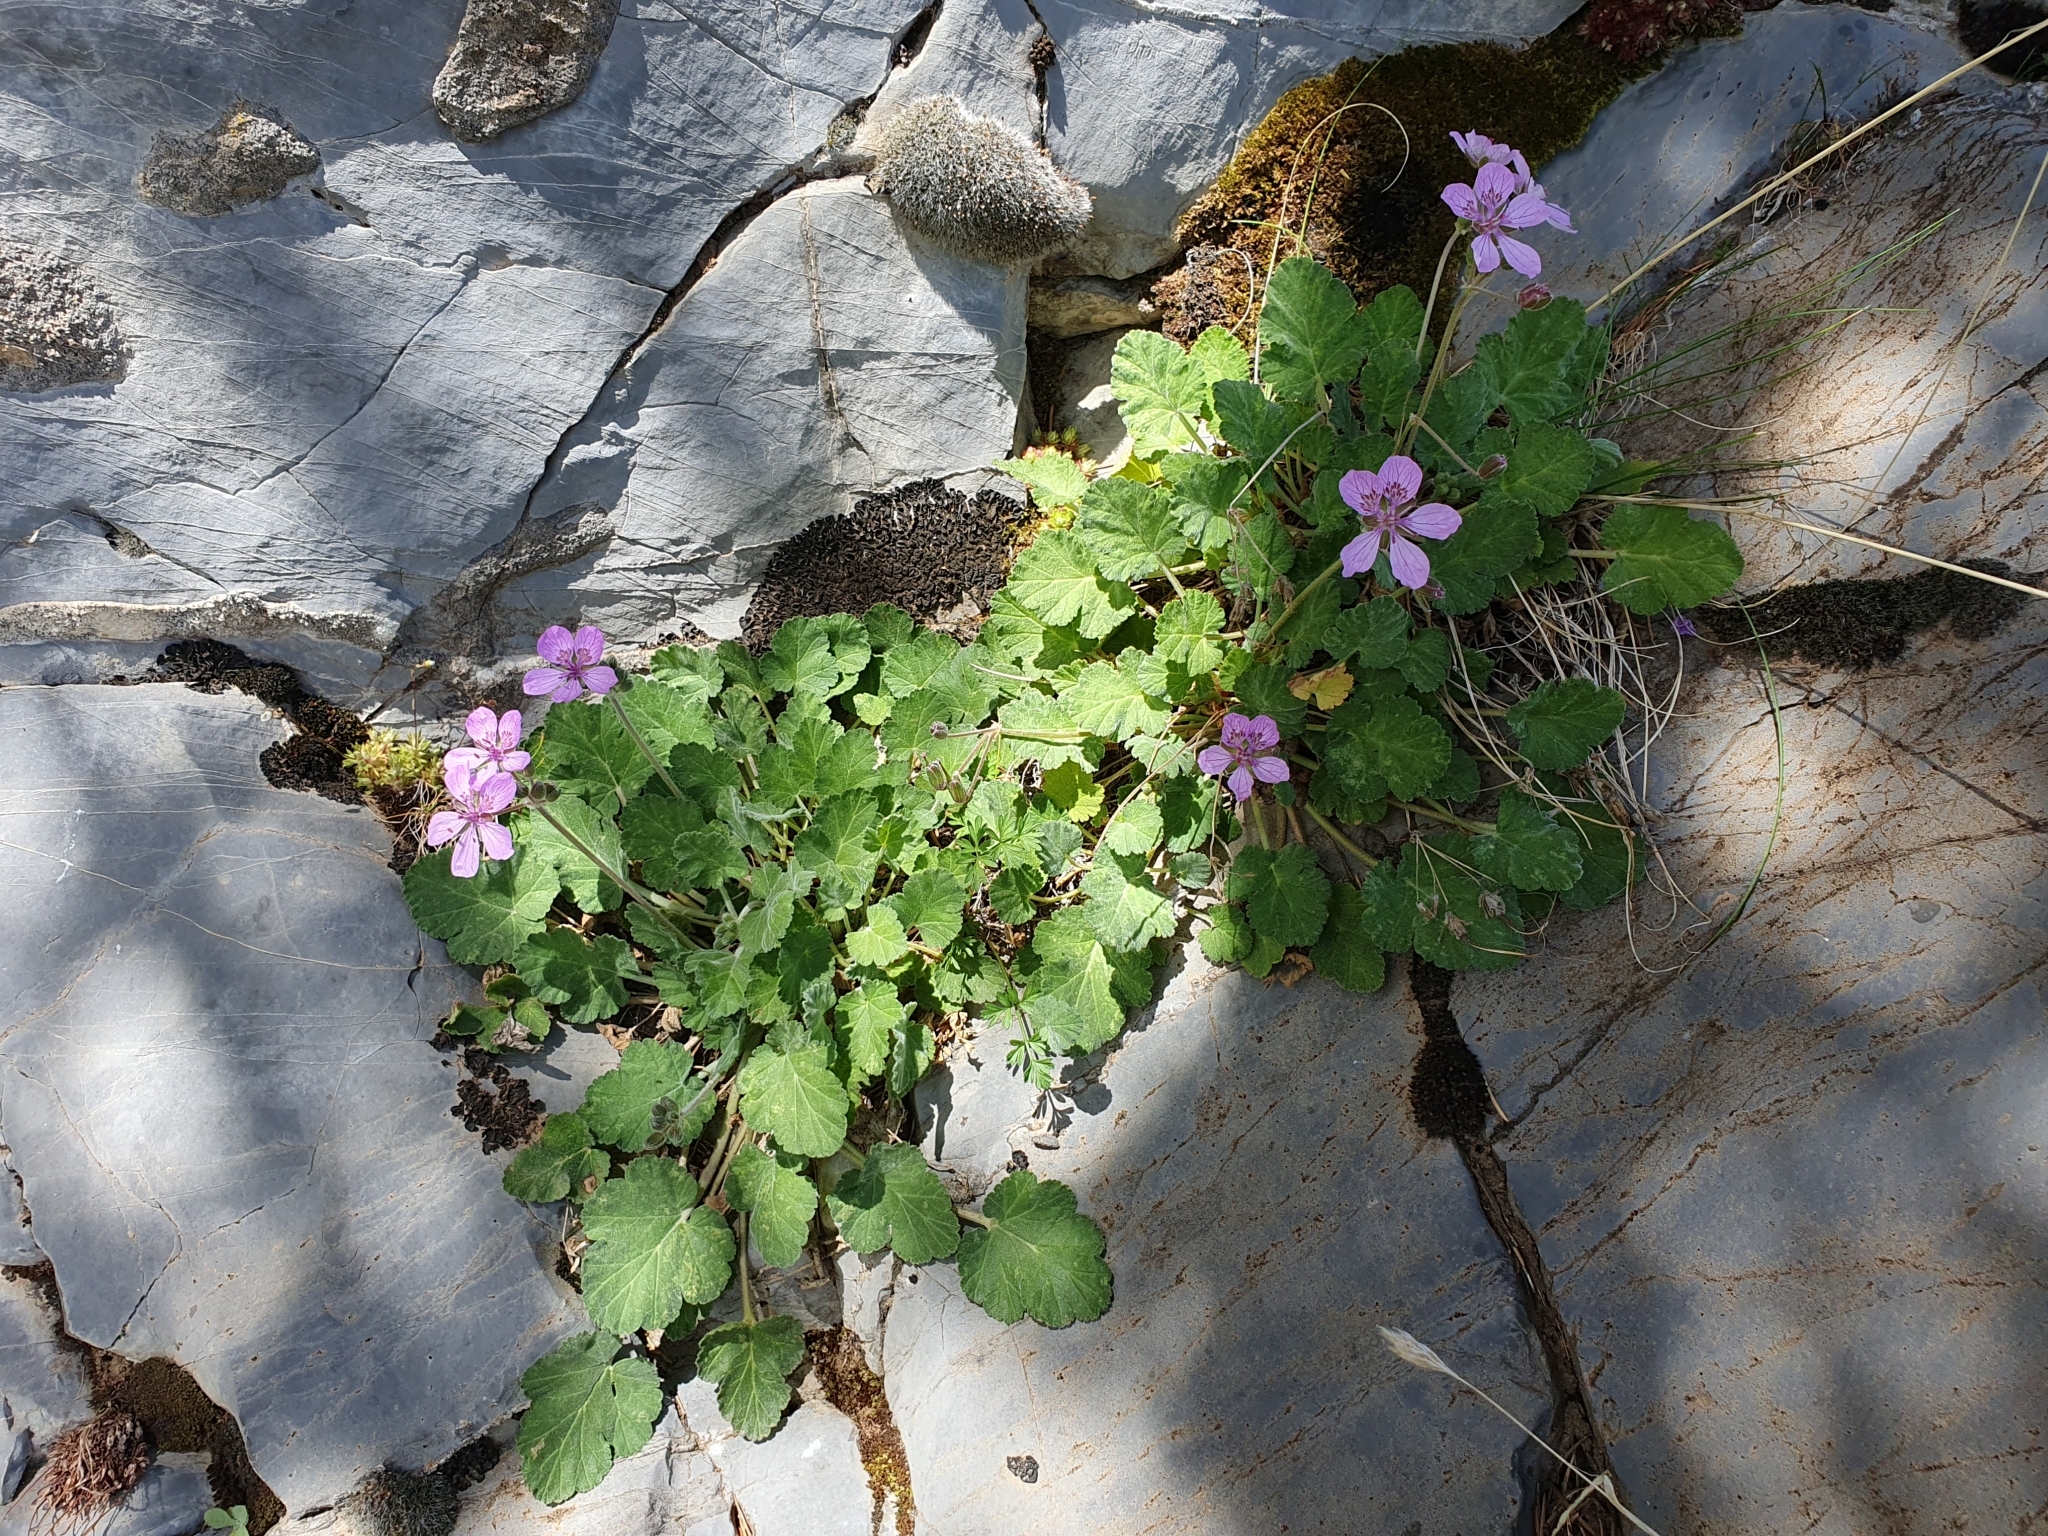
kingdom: Plantae
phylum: Tracheophyta
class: Magnoliopsida
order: Geraniales
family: Geraniaceae
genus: Erodium
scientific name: Erodium battandieranum
